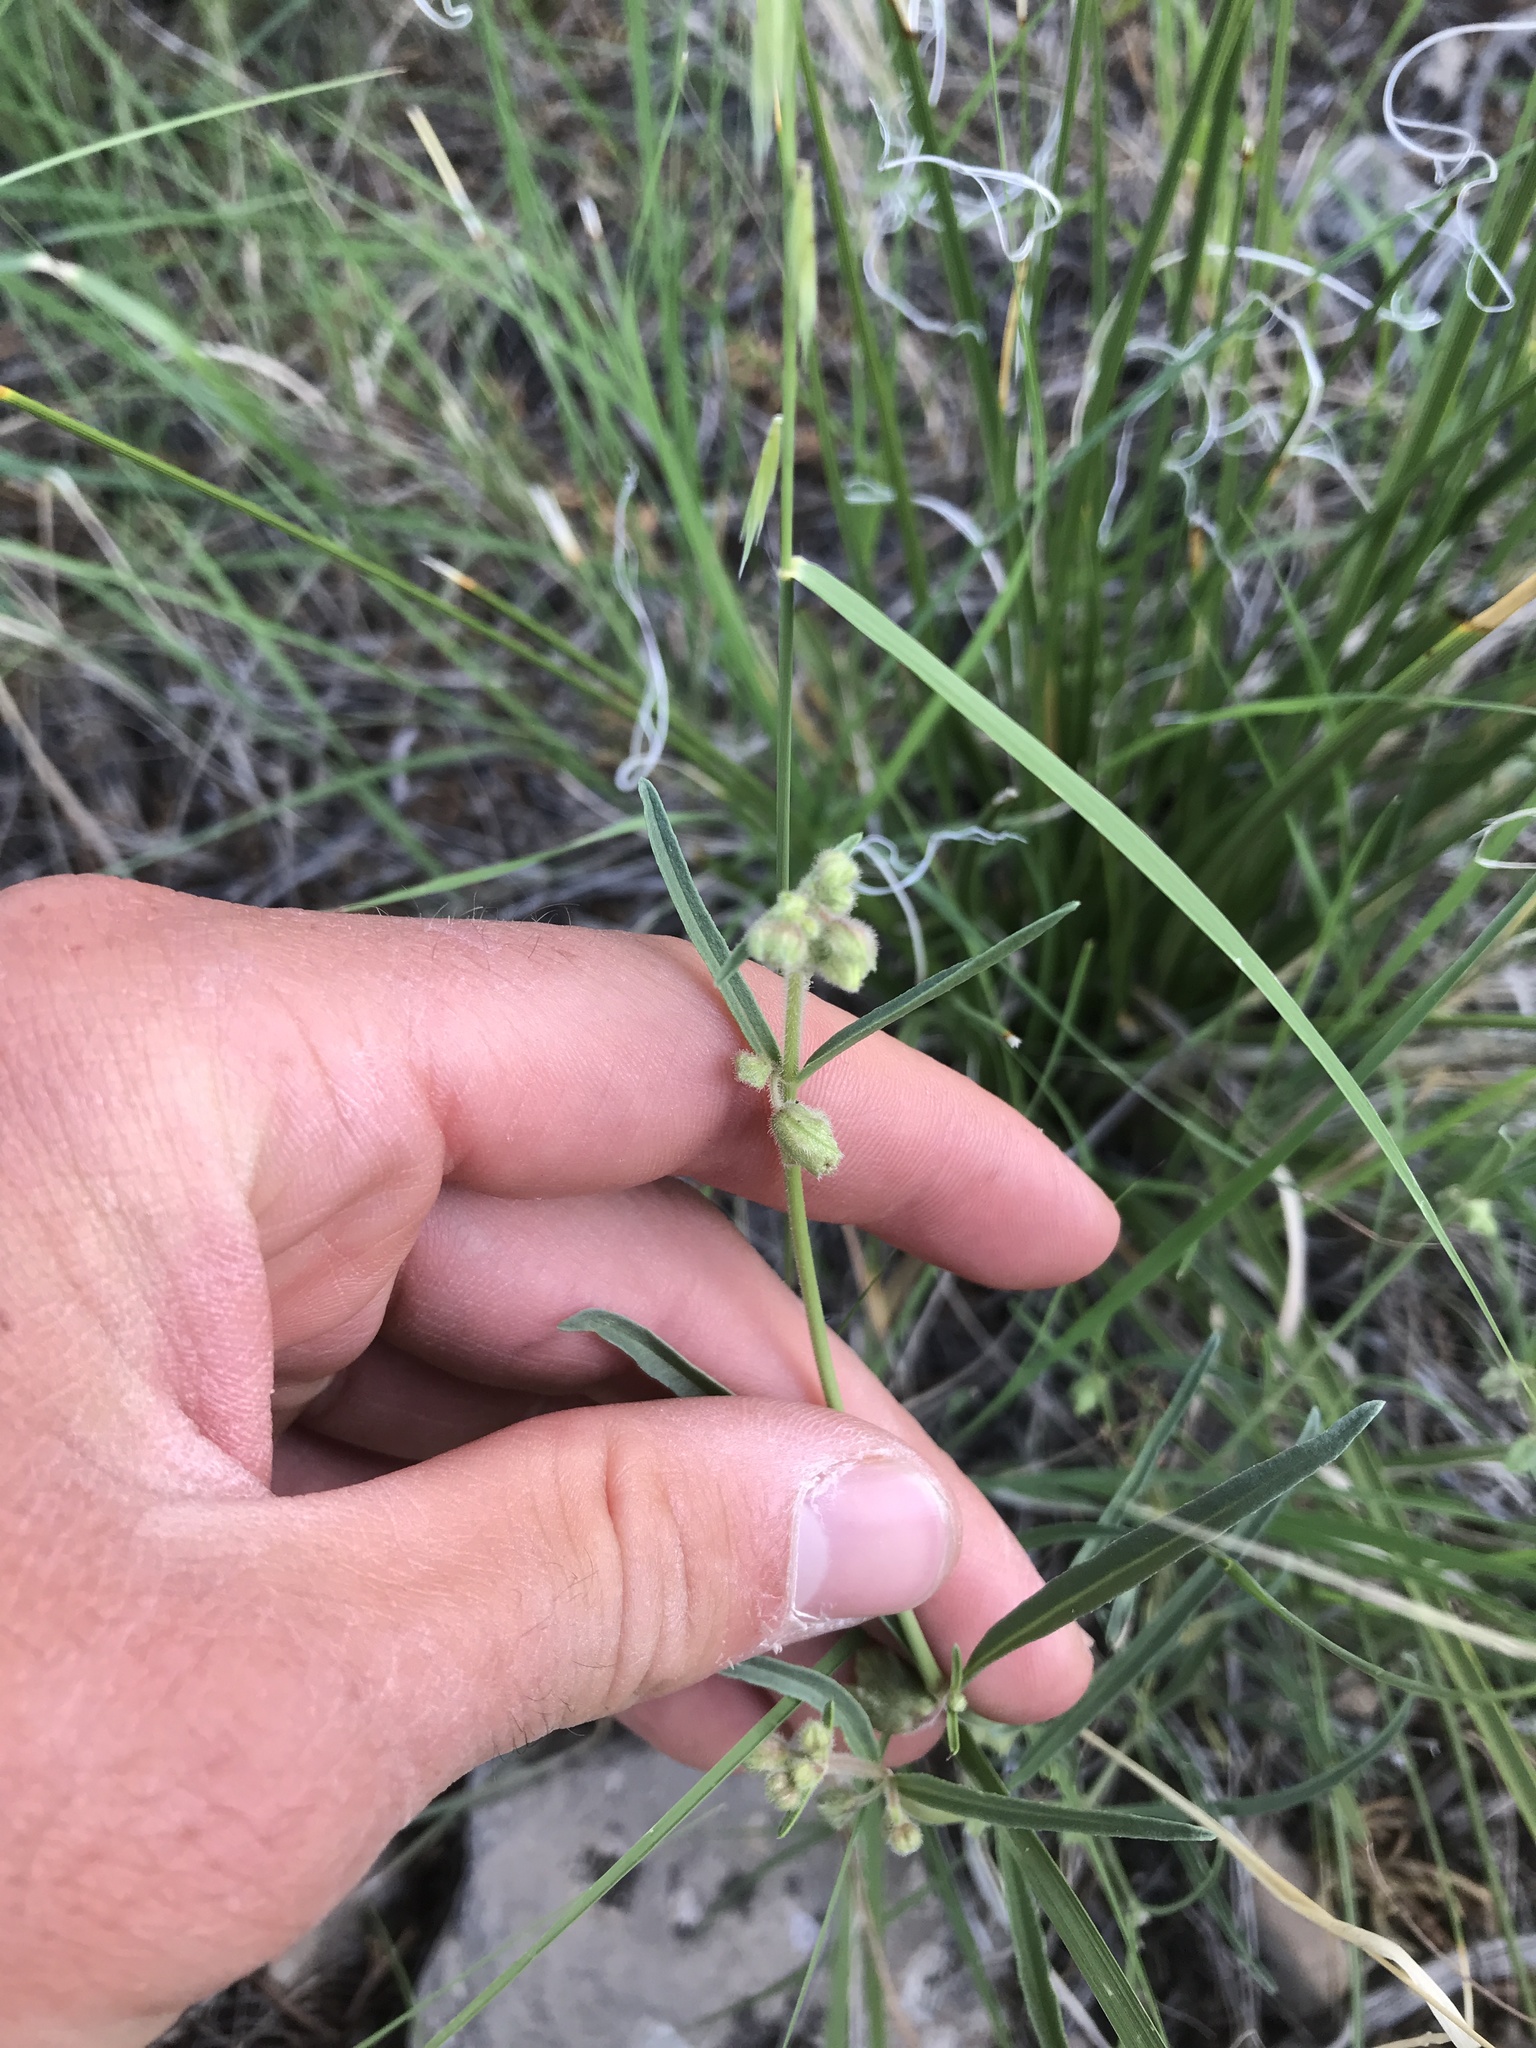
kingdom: Plantae
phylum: Tracheophyta
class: Magnoliopsida
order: Caryophyllales
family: Nyctaginaceae
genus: Mirabilis
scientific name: Mirabilis linearis
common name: Linear-leaved four-o'clock
